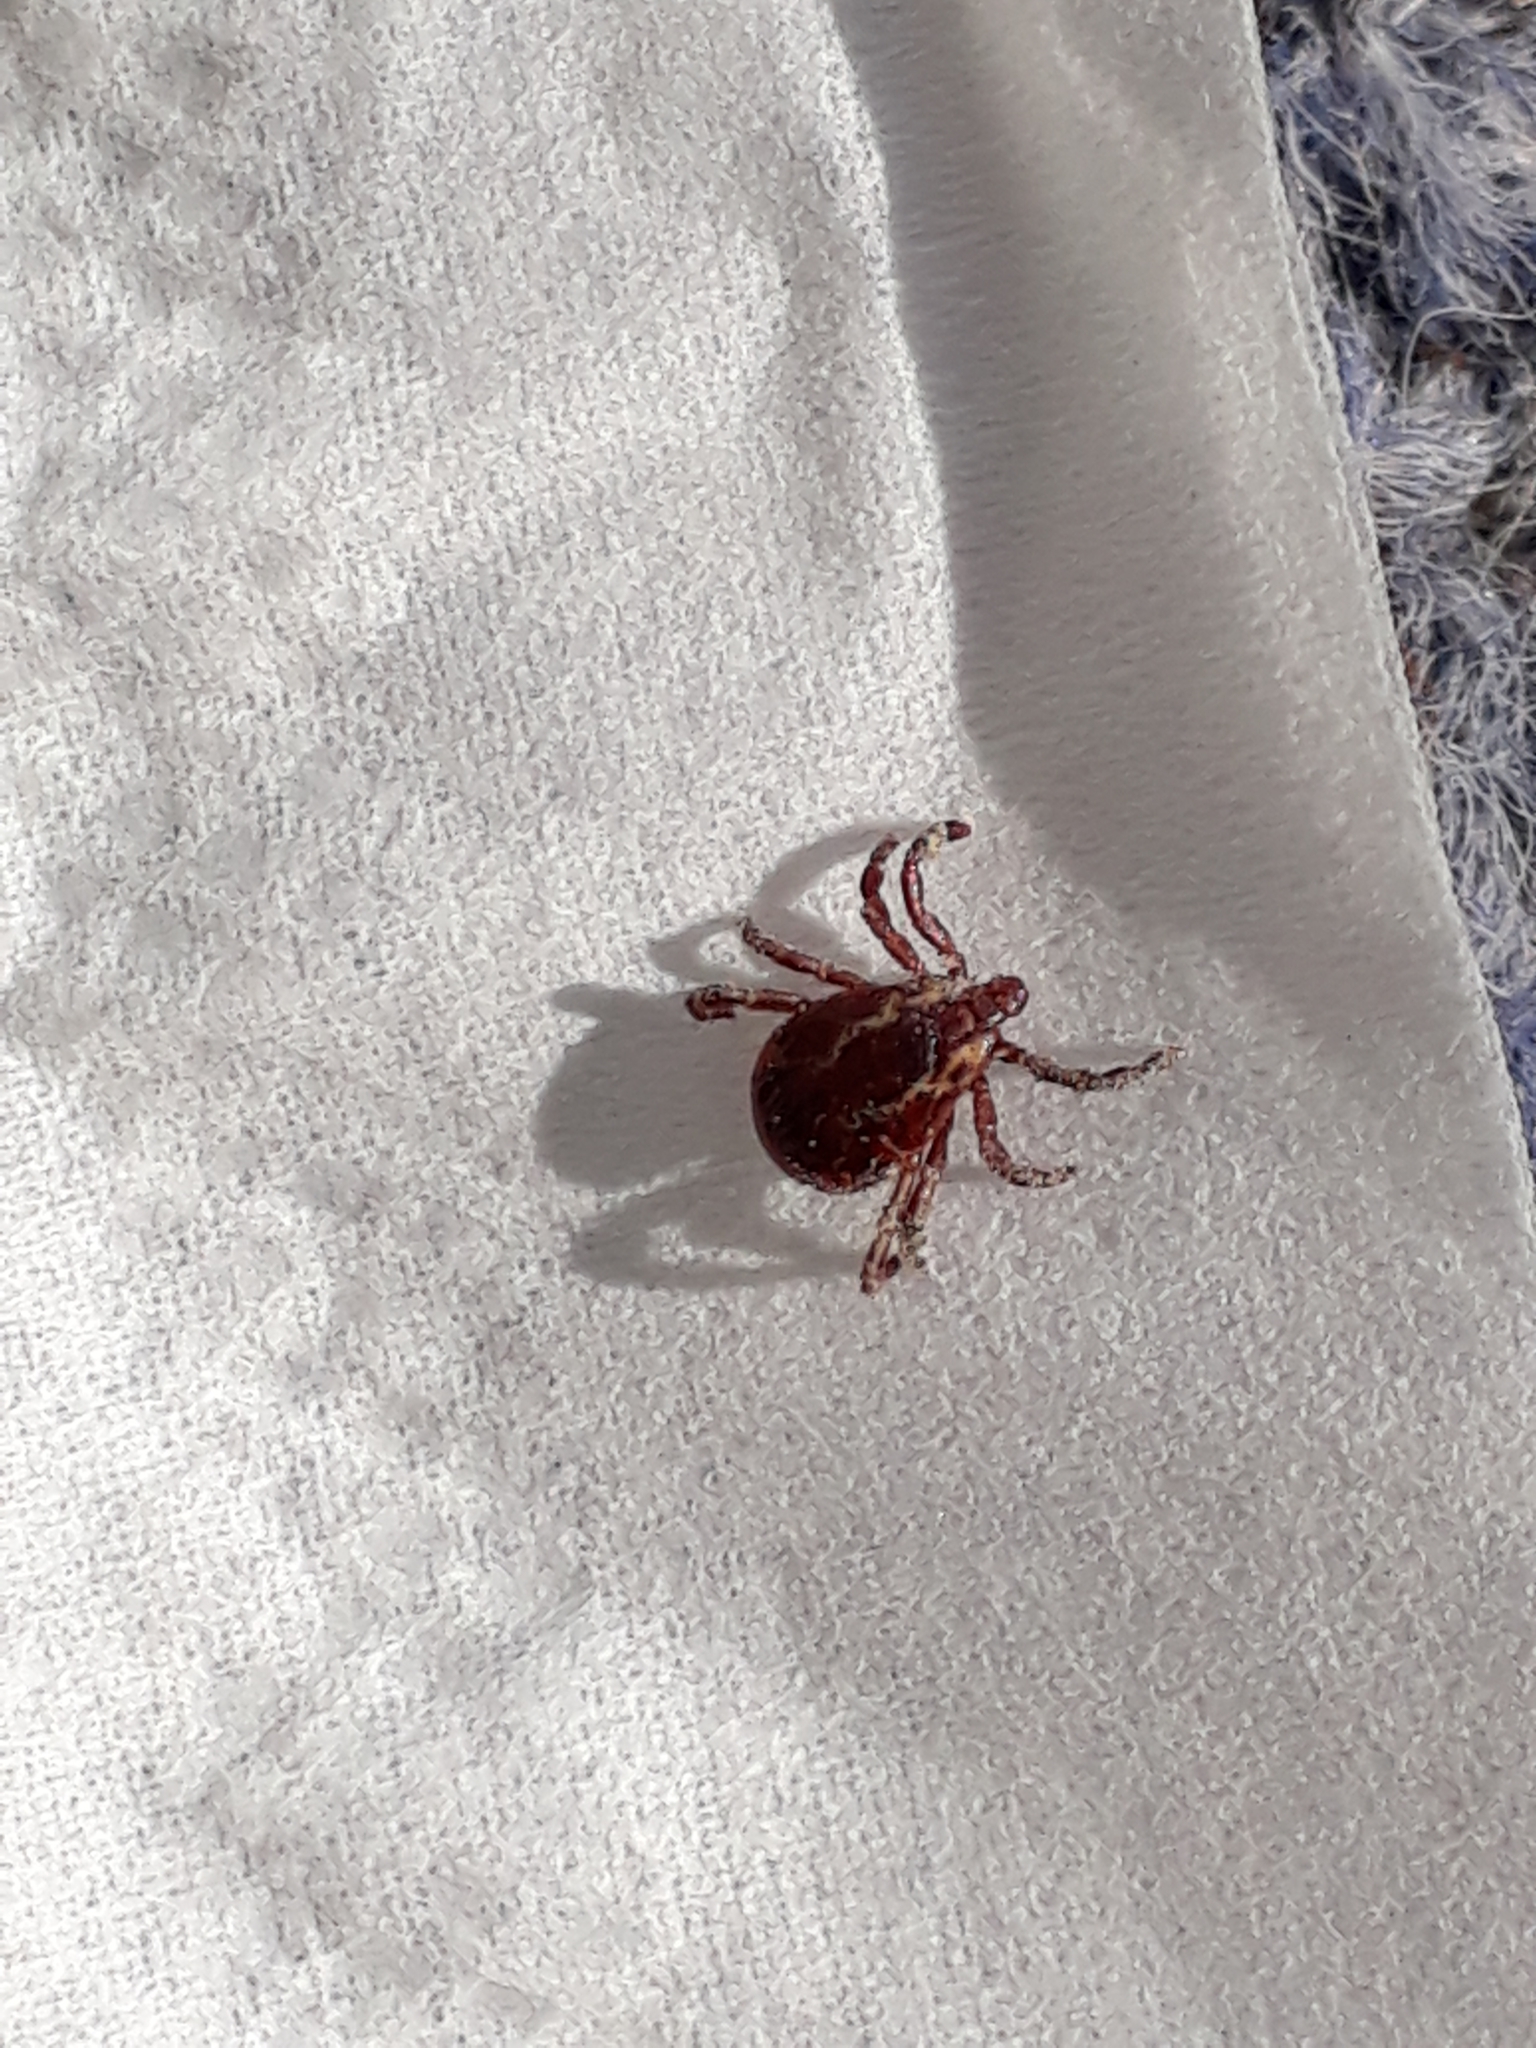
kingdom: Animalia
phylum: Arthropoda
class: Arachnida
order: Ixodida
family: Ixodidae
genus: Dermacentor
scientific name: Dermacentor variabilis
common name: American dog tick
